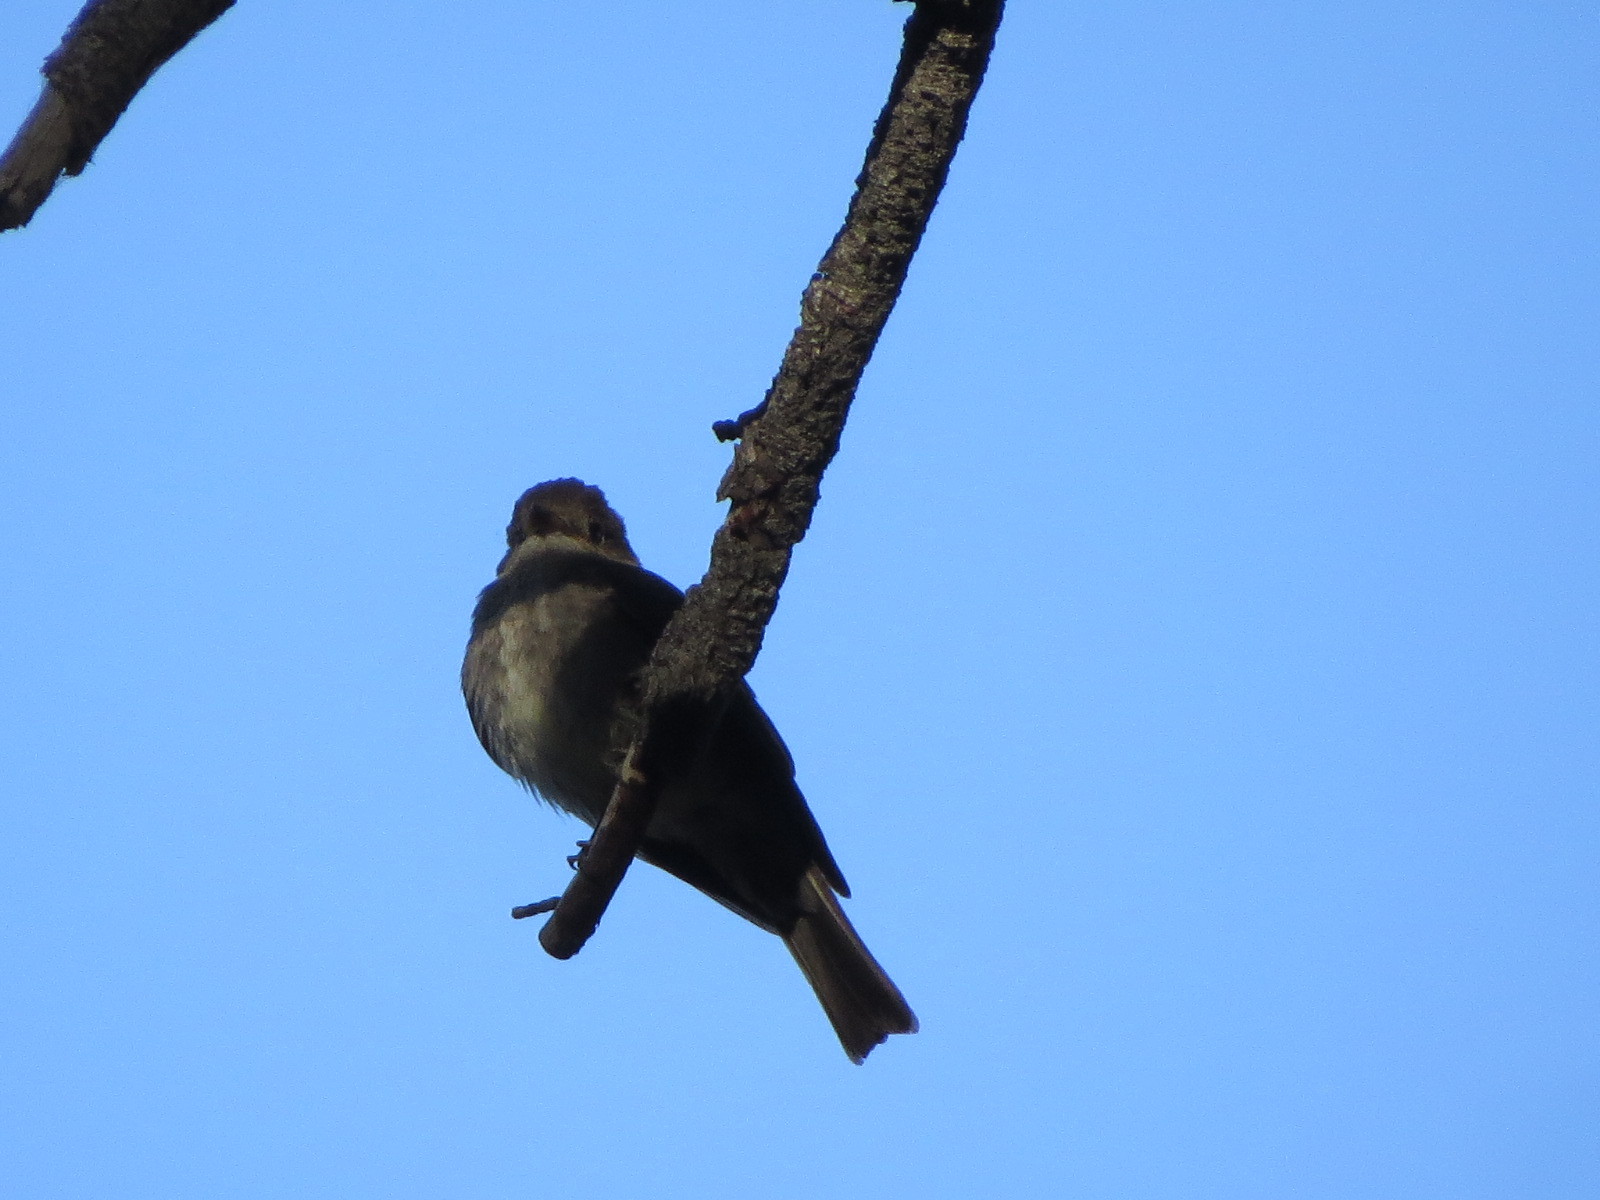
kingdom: Animalia
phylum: Chordata
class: Aves
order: Passeriformes
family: Tyrannidae
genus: Contopus
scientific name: Contopus sordidulus
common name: Western wood-pewee
